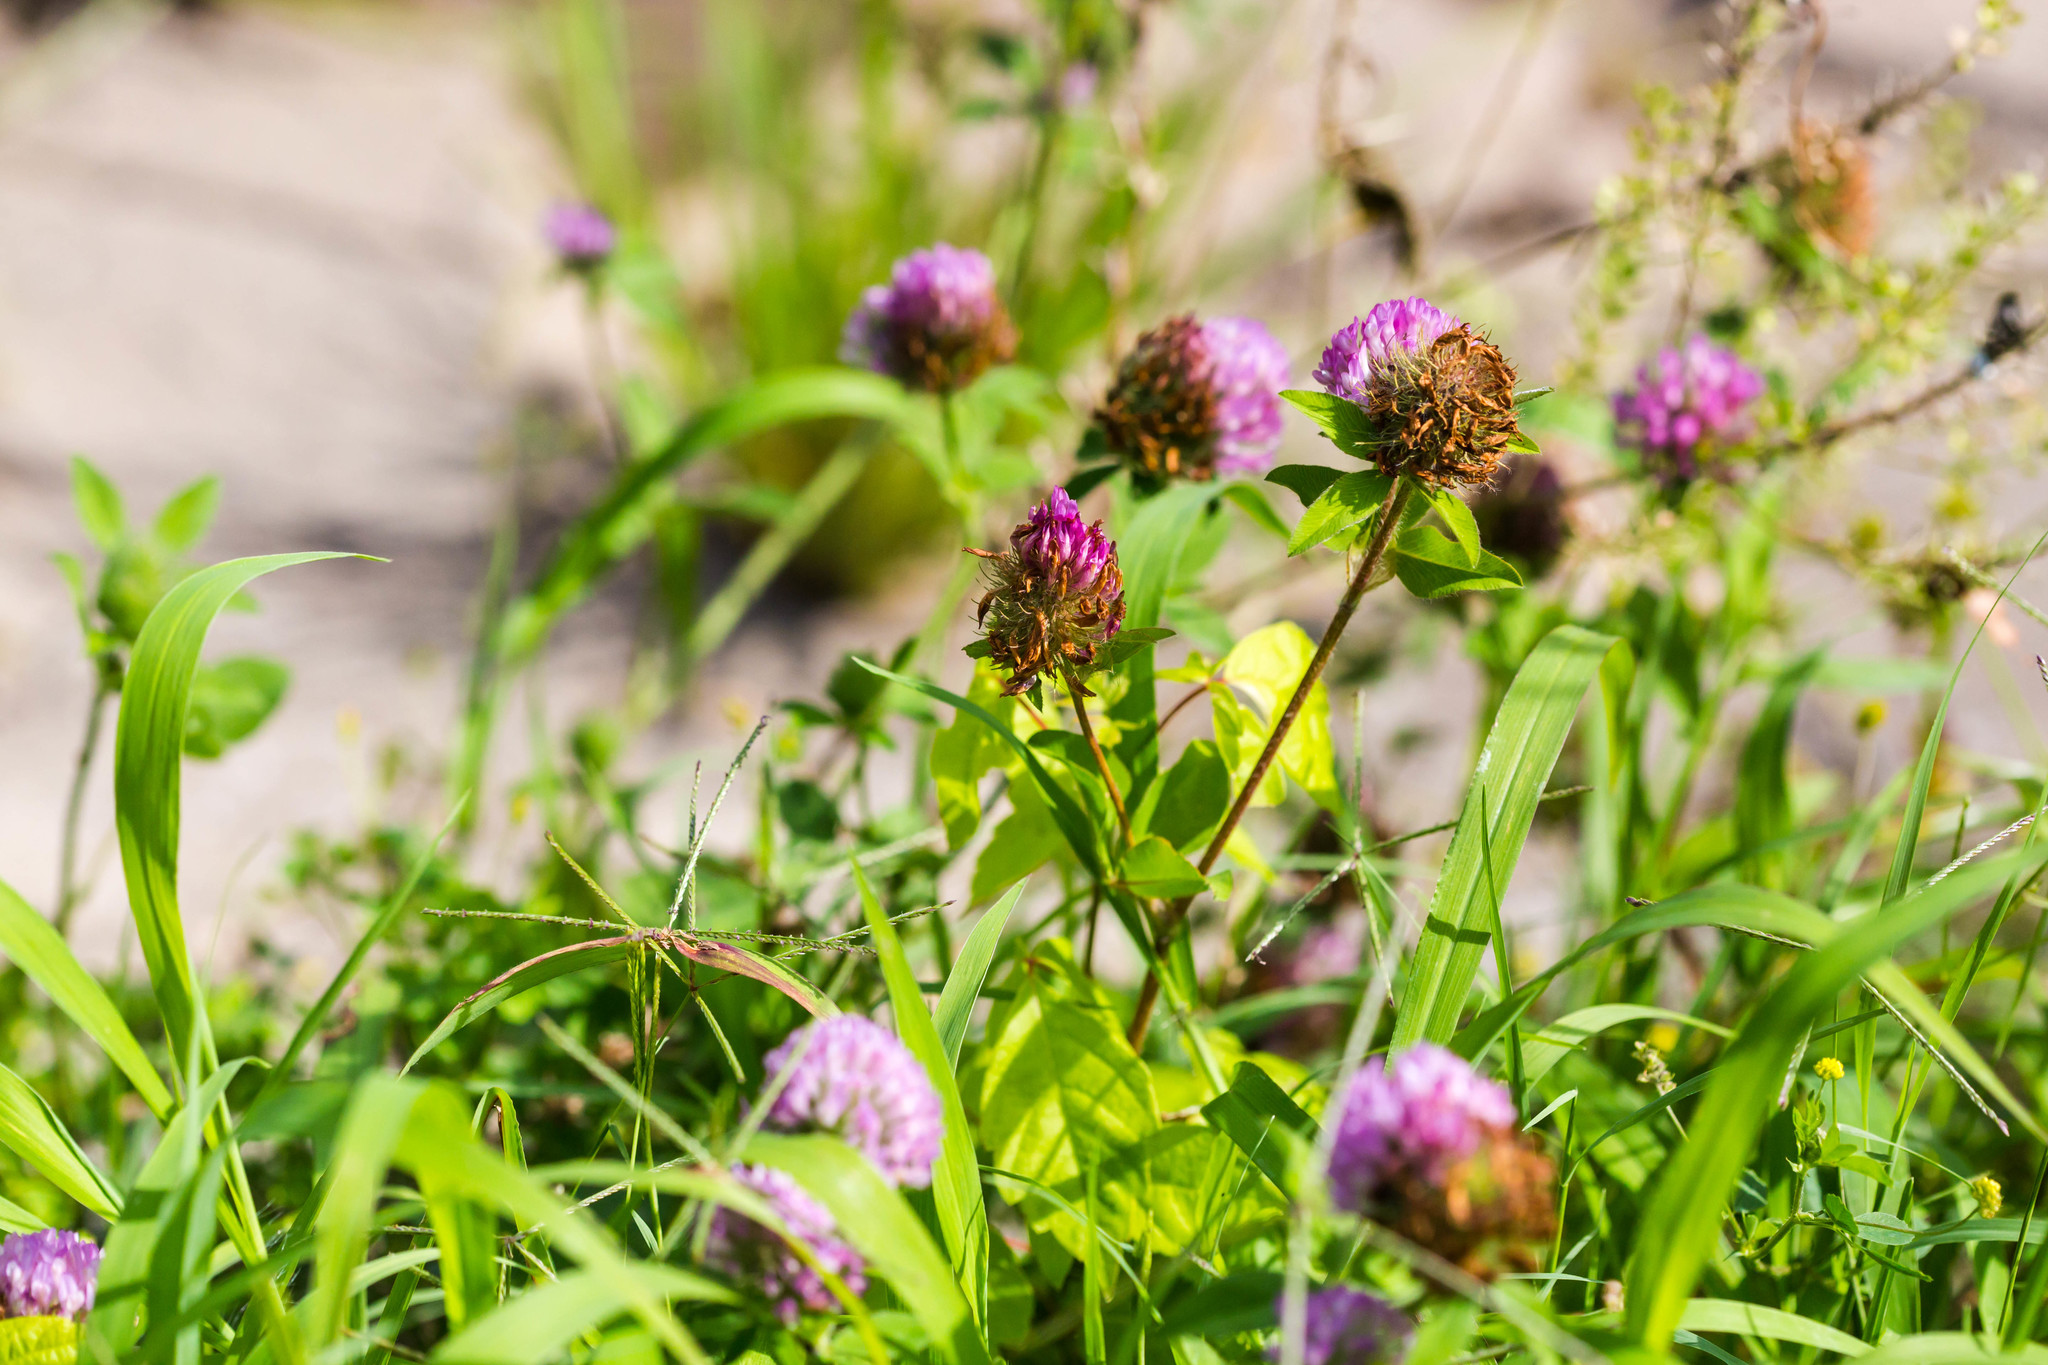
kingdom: Plantae
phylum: Tracheophyta
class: Magnoliopsida
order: Fabales
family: Fabaceae
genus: Trifolium
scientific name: Trifolium pratense
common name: Red clover
